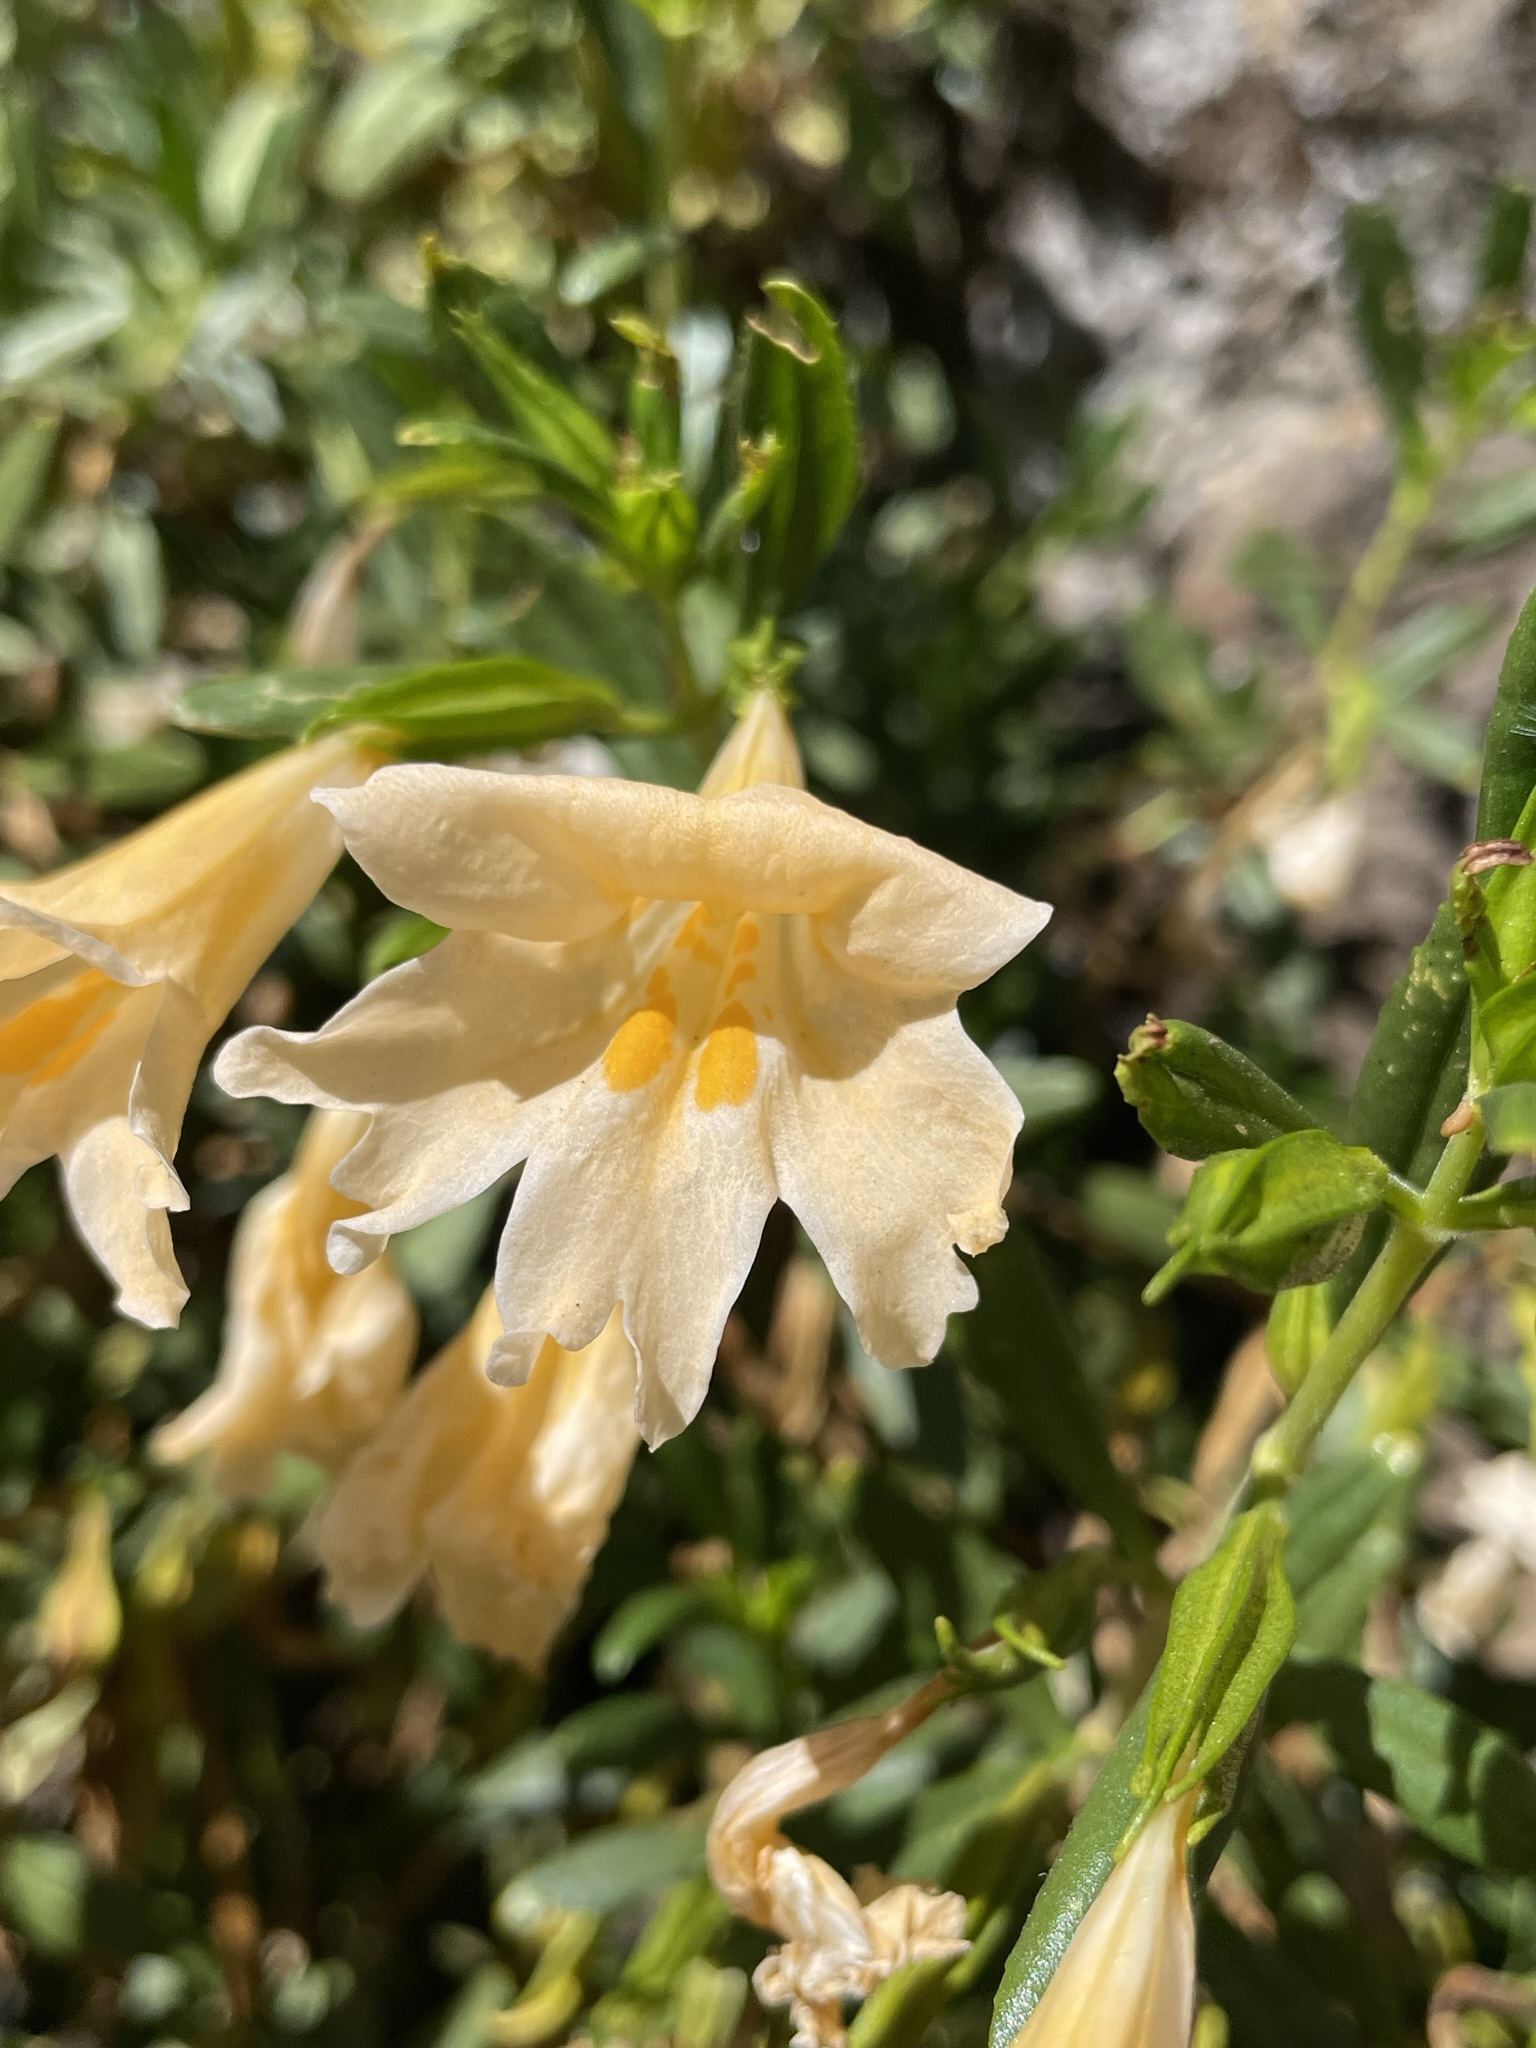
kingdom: Plantae
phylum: Tracheophyta
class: Magnoliopsida
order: Lamiales
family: Phrymaceae
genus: Diplacus
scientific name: Diplacus grandiflorus
